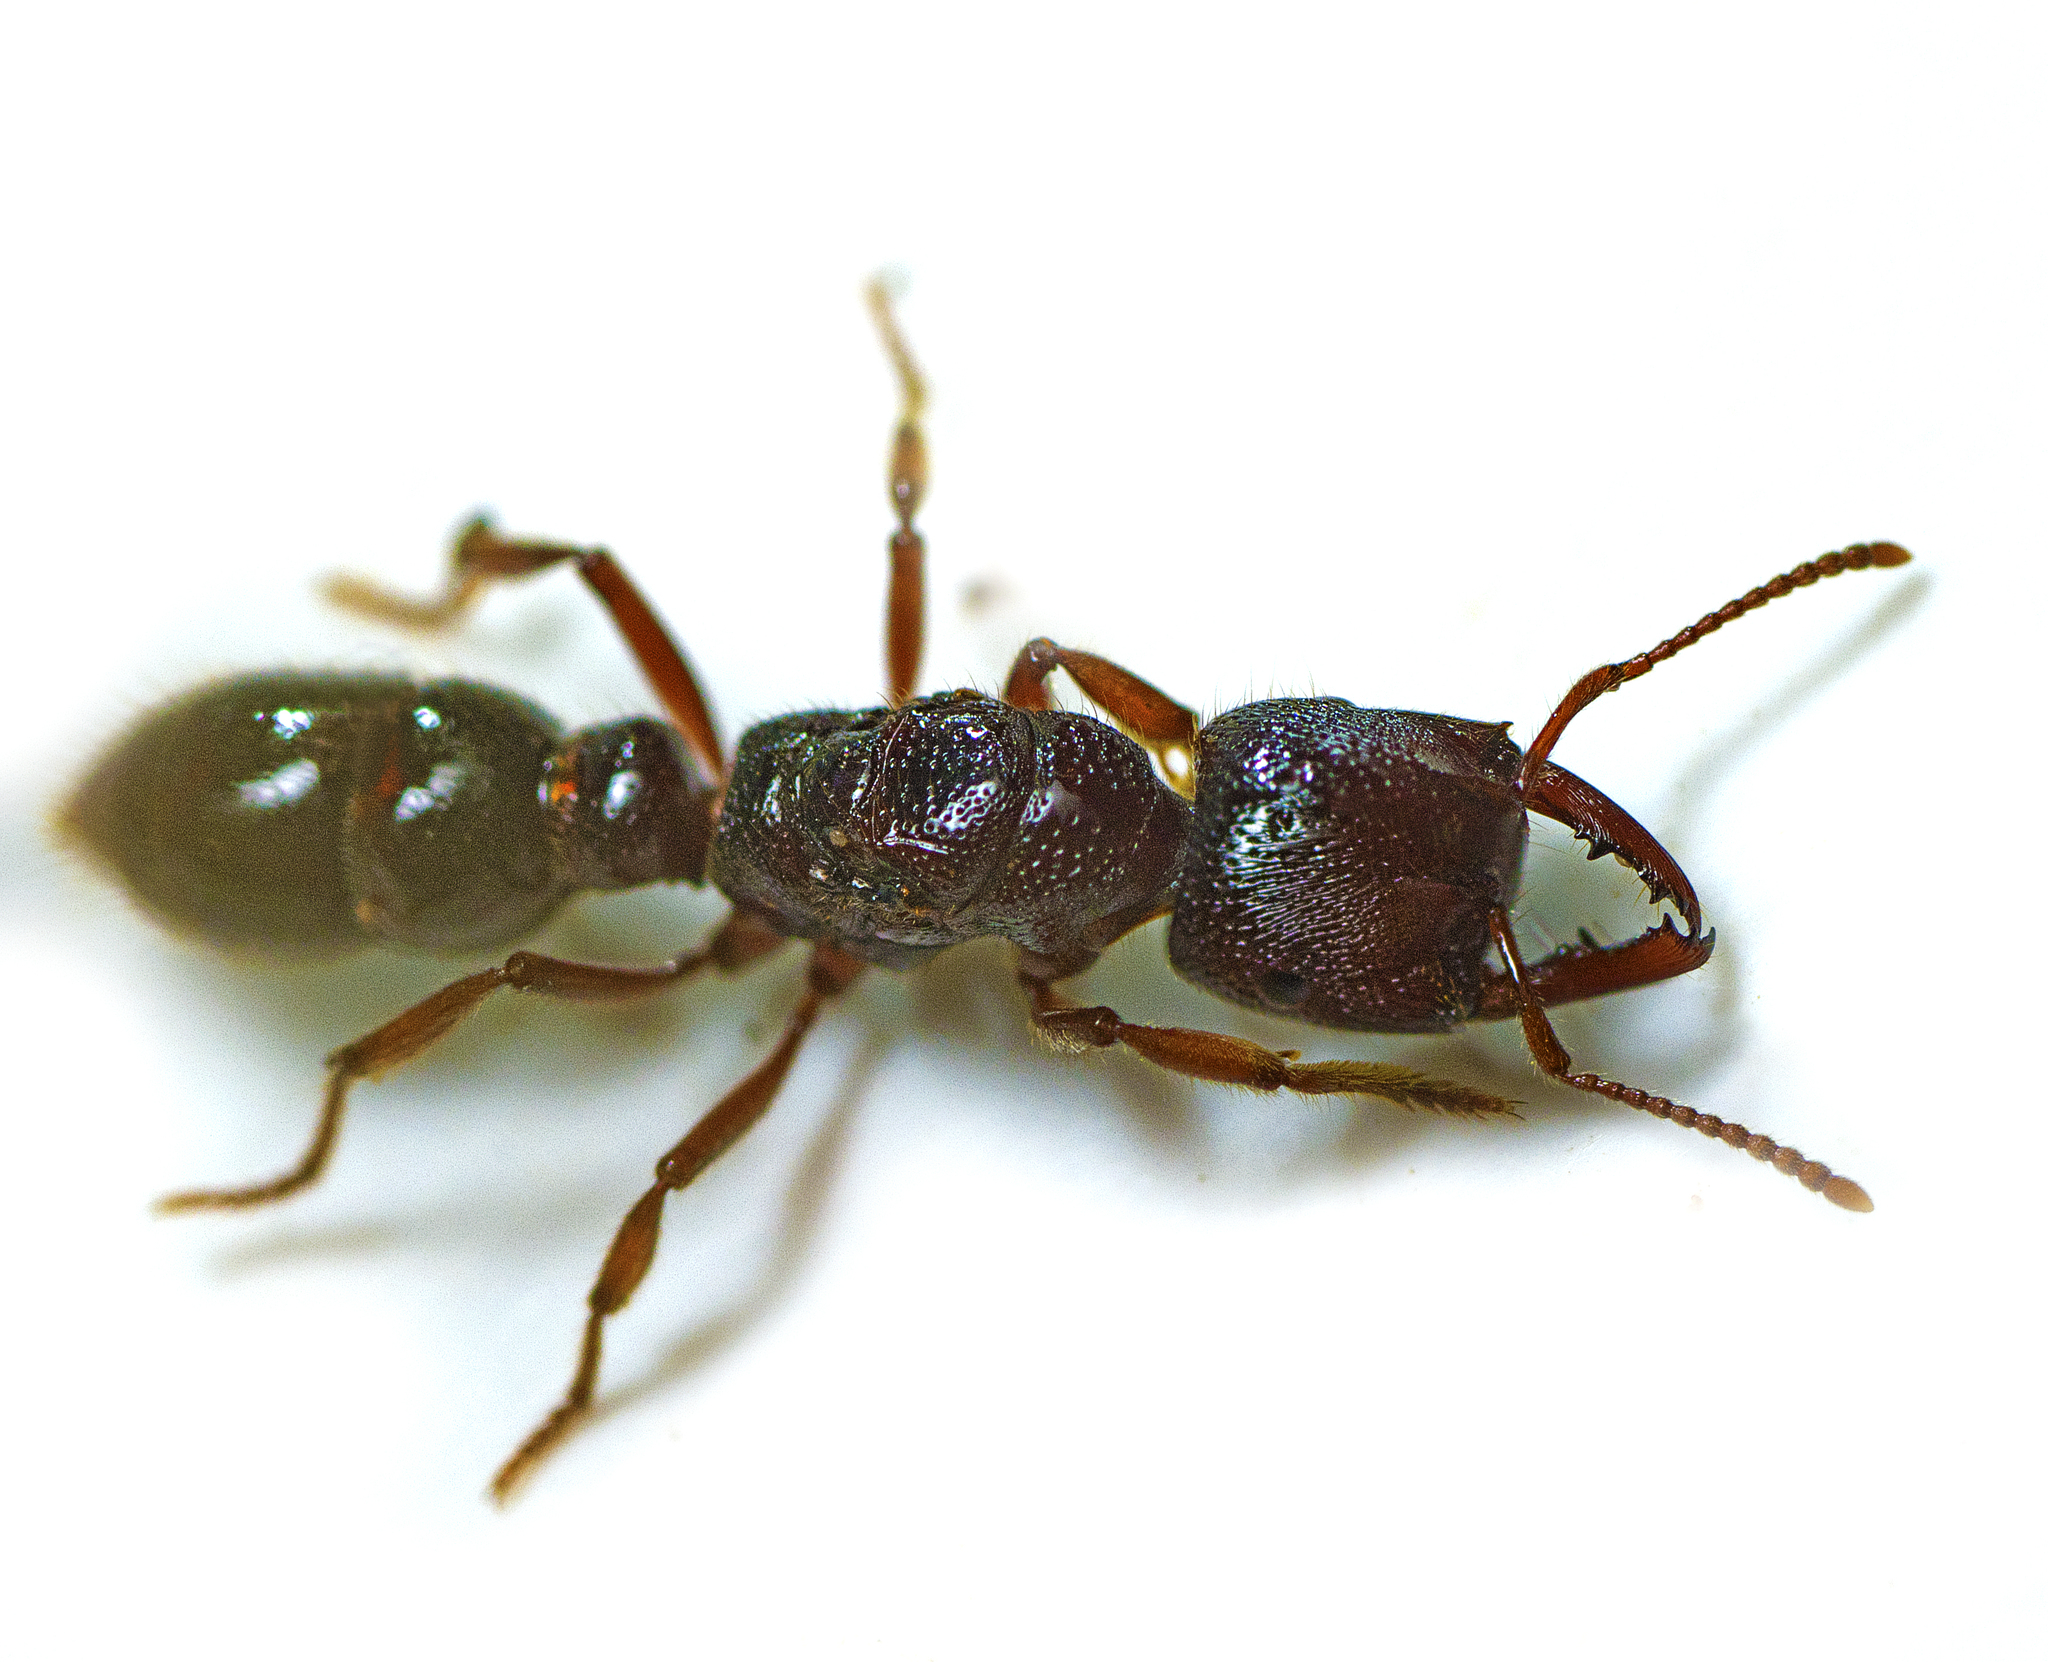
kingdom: Animalia
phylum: Arthropoda
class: Insecta
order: Hymenoptera
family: Formicidae
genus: Amblyopone
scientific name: Amblyopone australis
